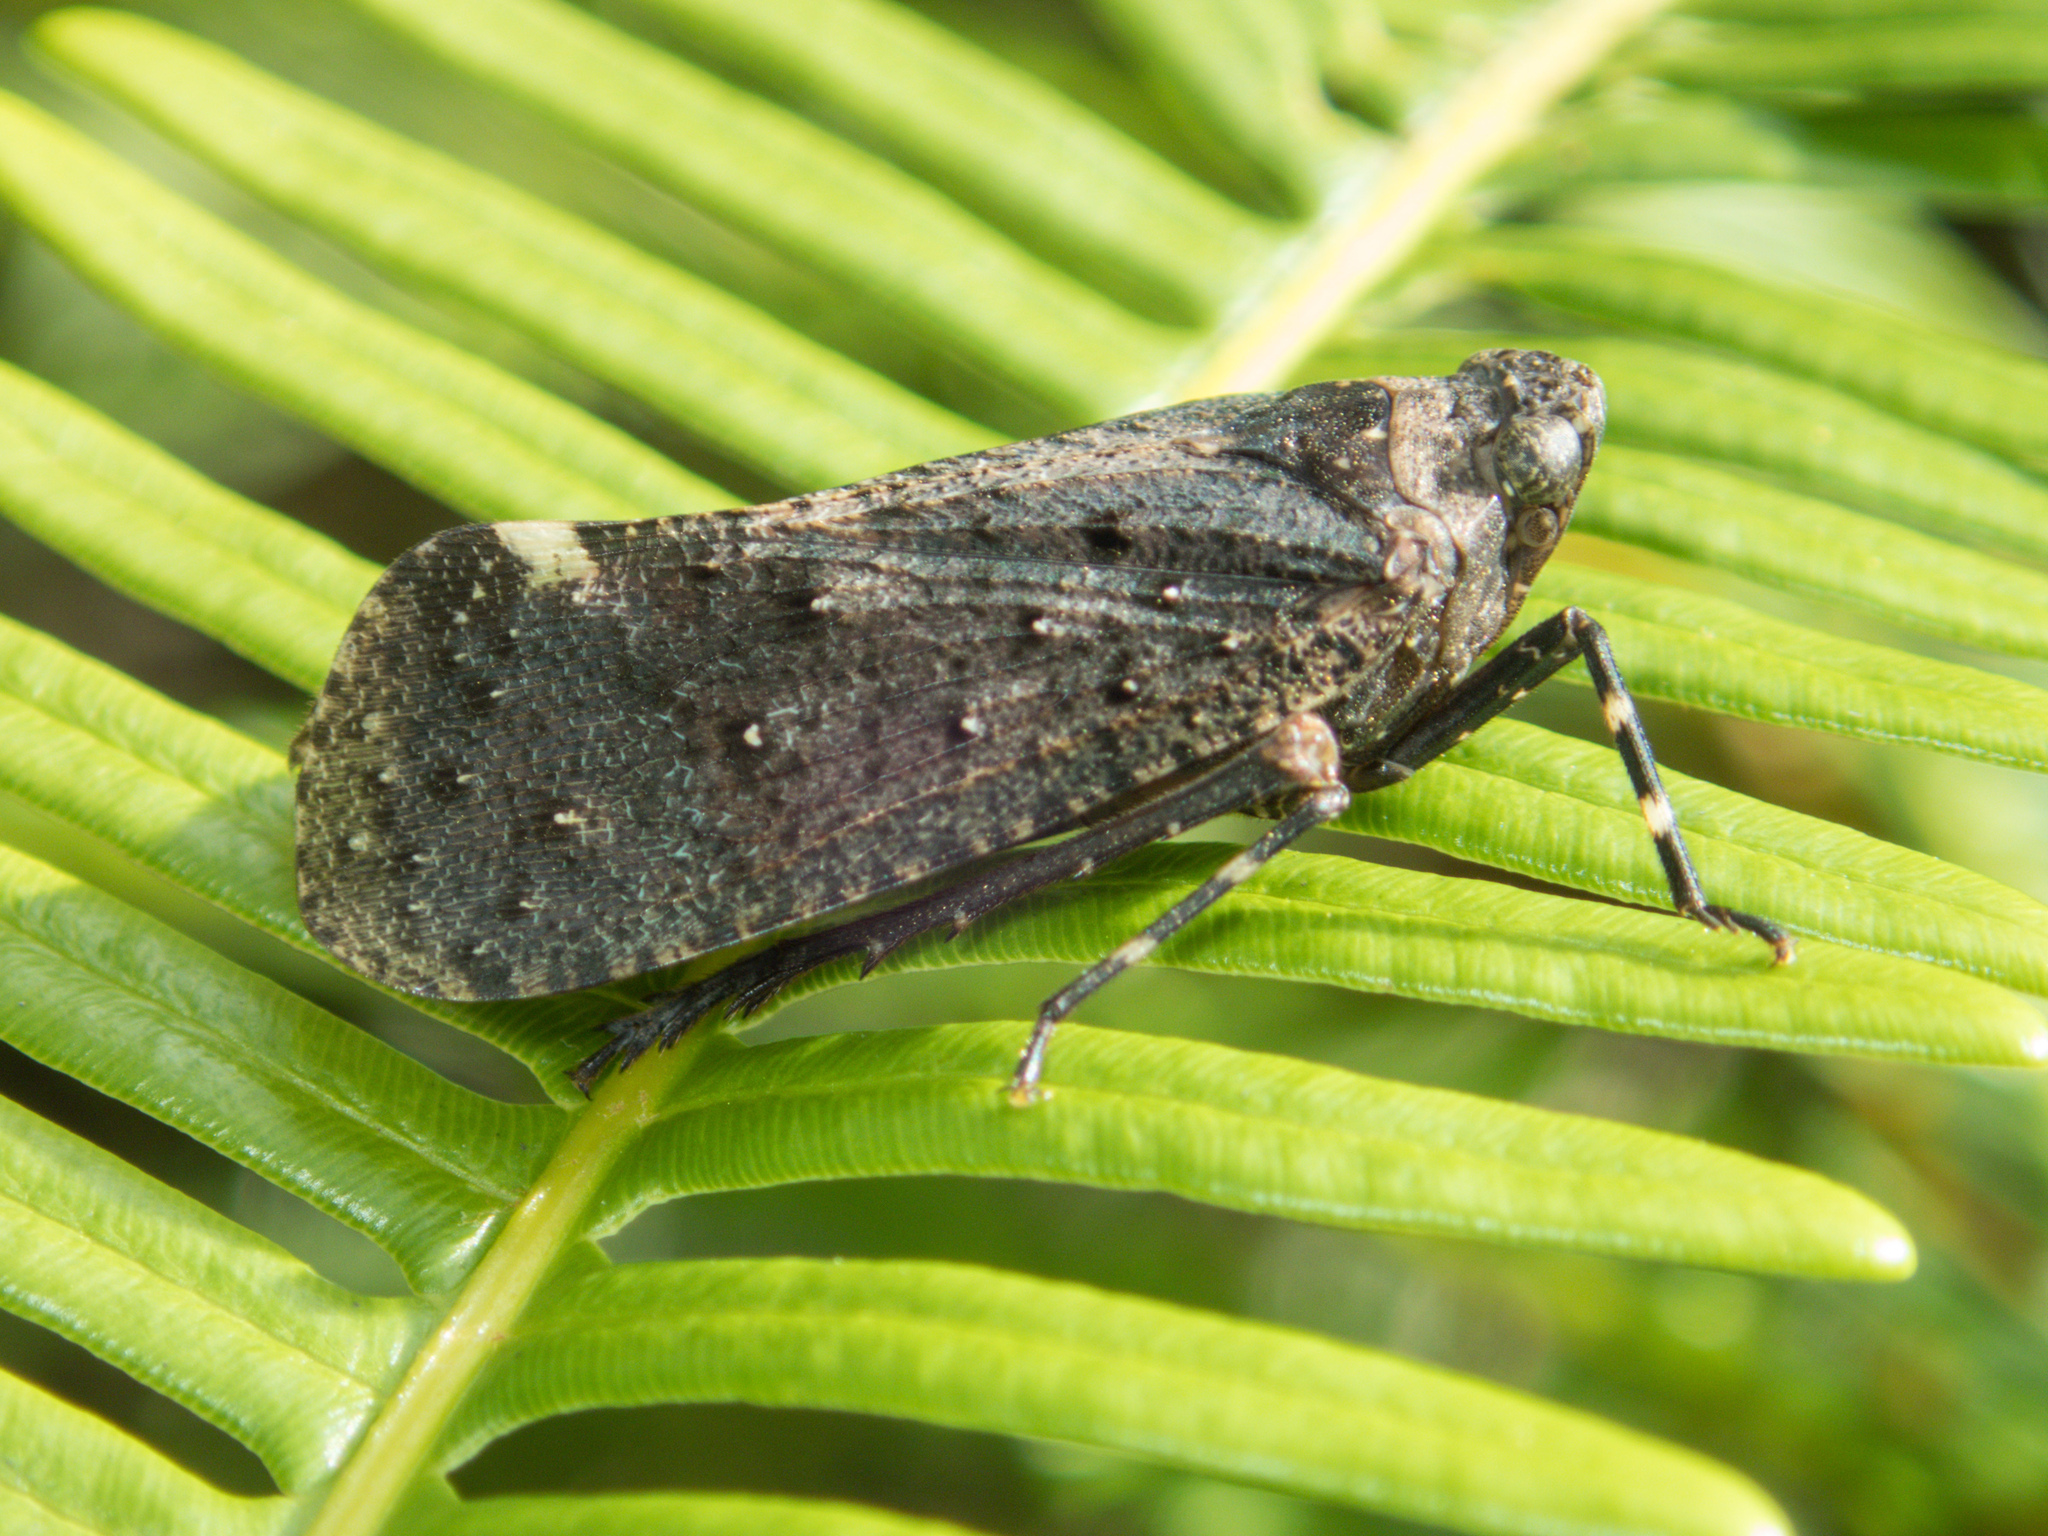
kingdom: Animalia
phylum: Arthropoda
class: Insecta
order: Hemiptera
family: Fulgoridae
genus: Penthicodes
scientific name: Penthicodes pulchella
